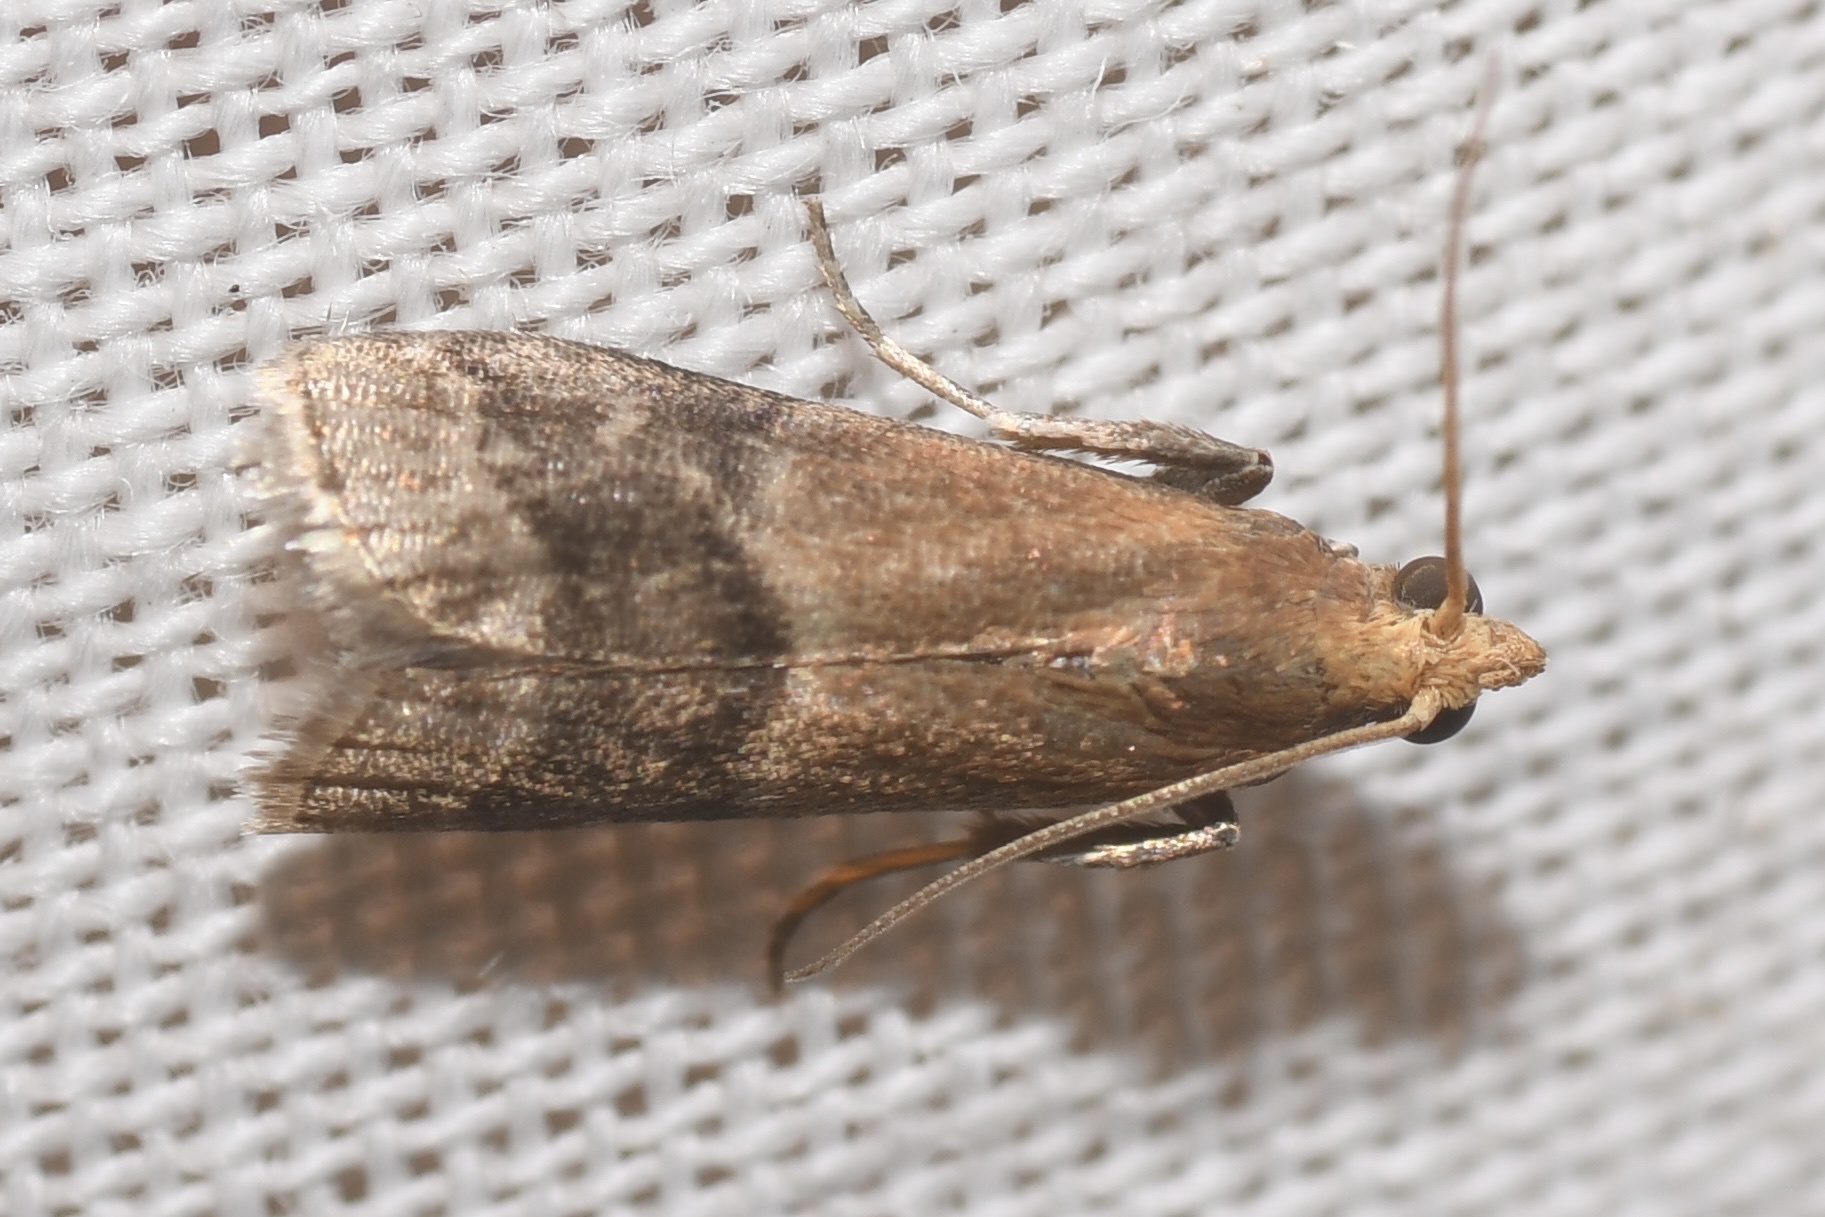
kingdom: Animalia
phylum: Arthropoda
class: Insecta
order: Lepidoptera
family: Pyralidae
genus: Eulogia
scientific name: Eulogia ochrifrontella
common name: Broad-banded eulogia moth
